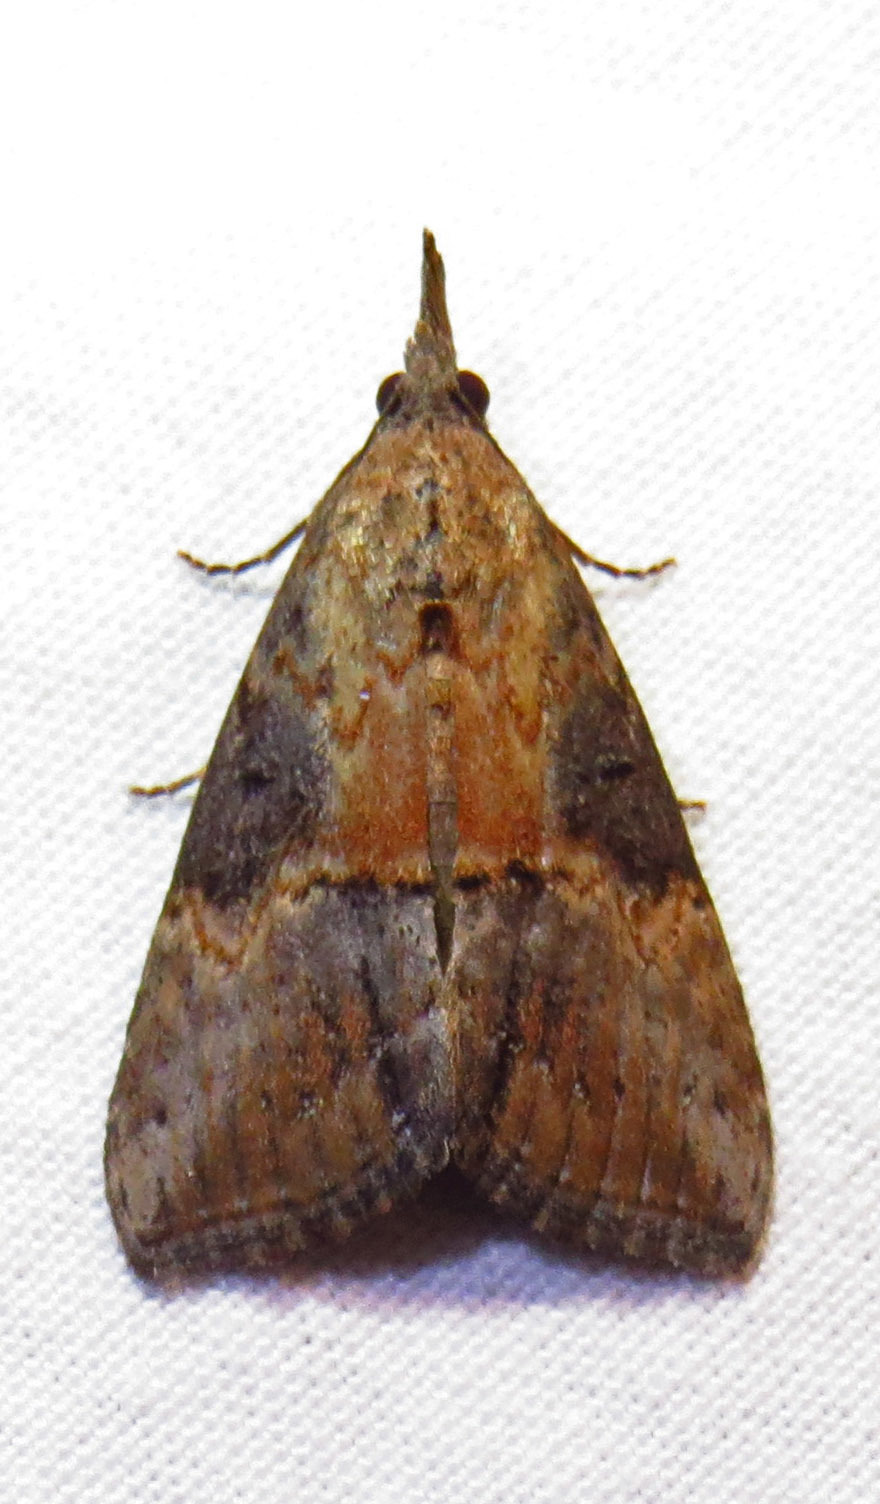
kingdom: Animalia
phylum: Arthropoda
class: Insecta
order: Lepidoptera
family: Erebidae
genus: Hypena
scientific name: Hypena scabra
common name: Green cloverworm
